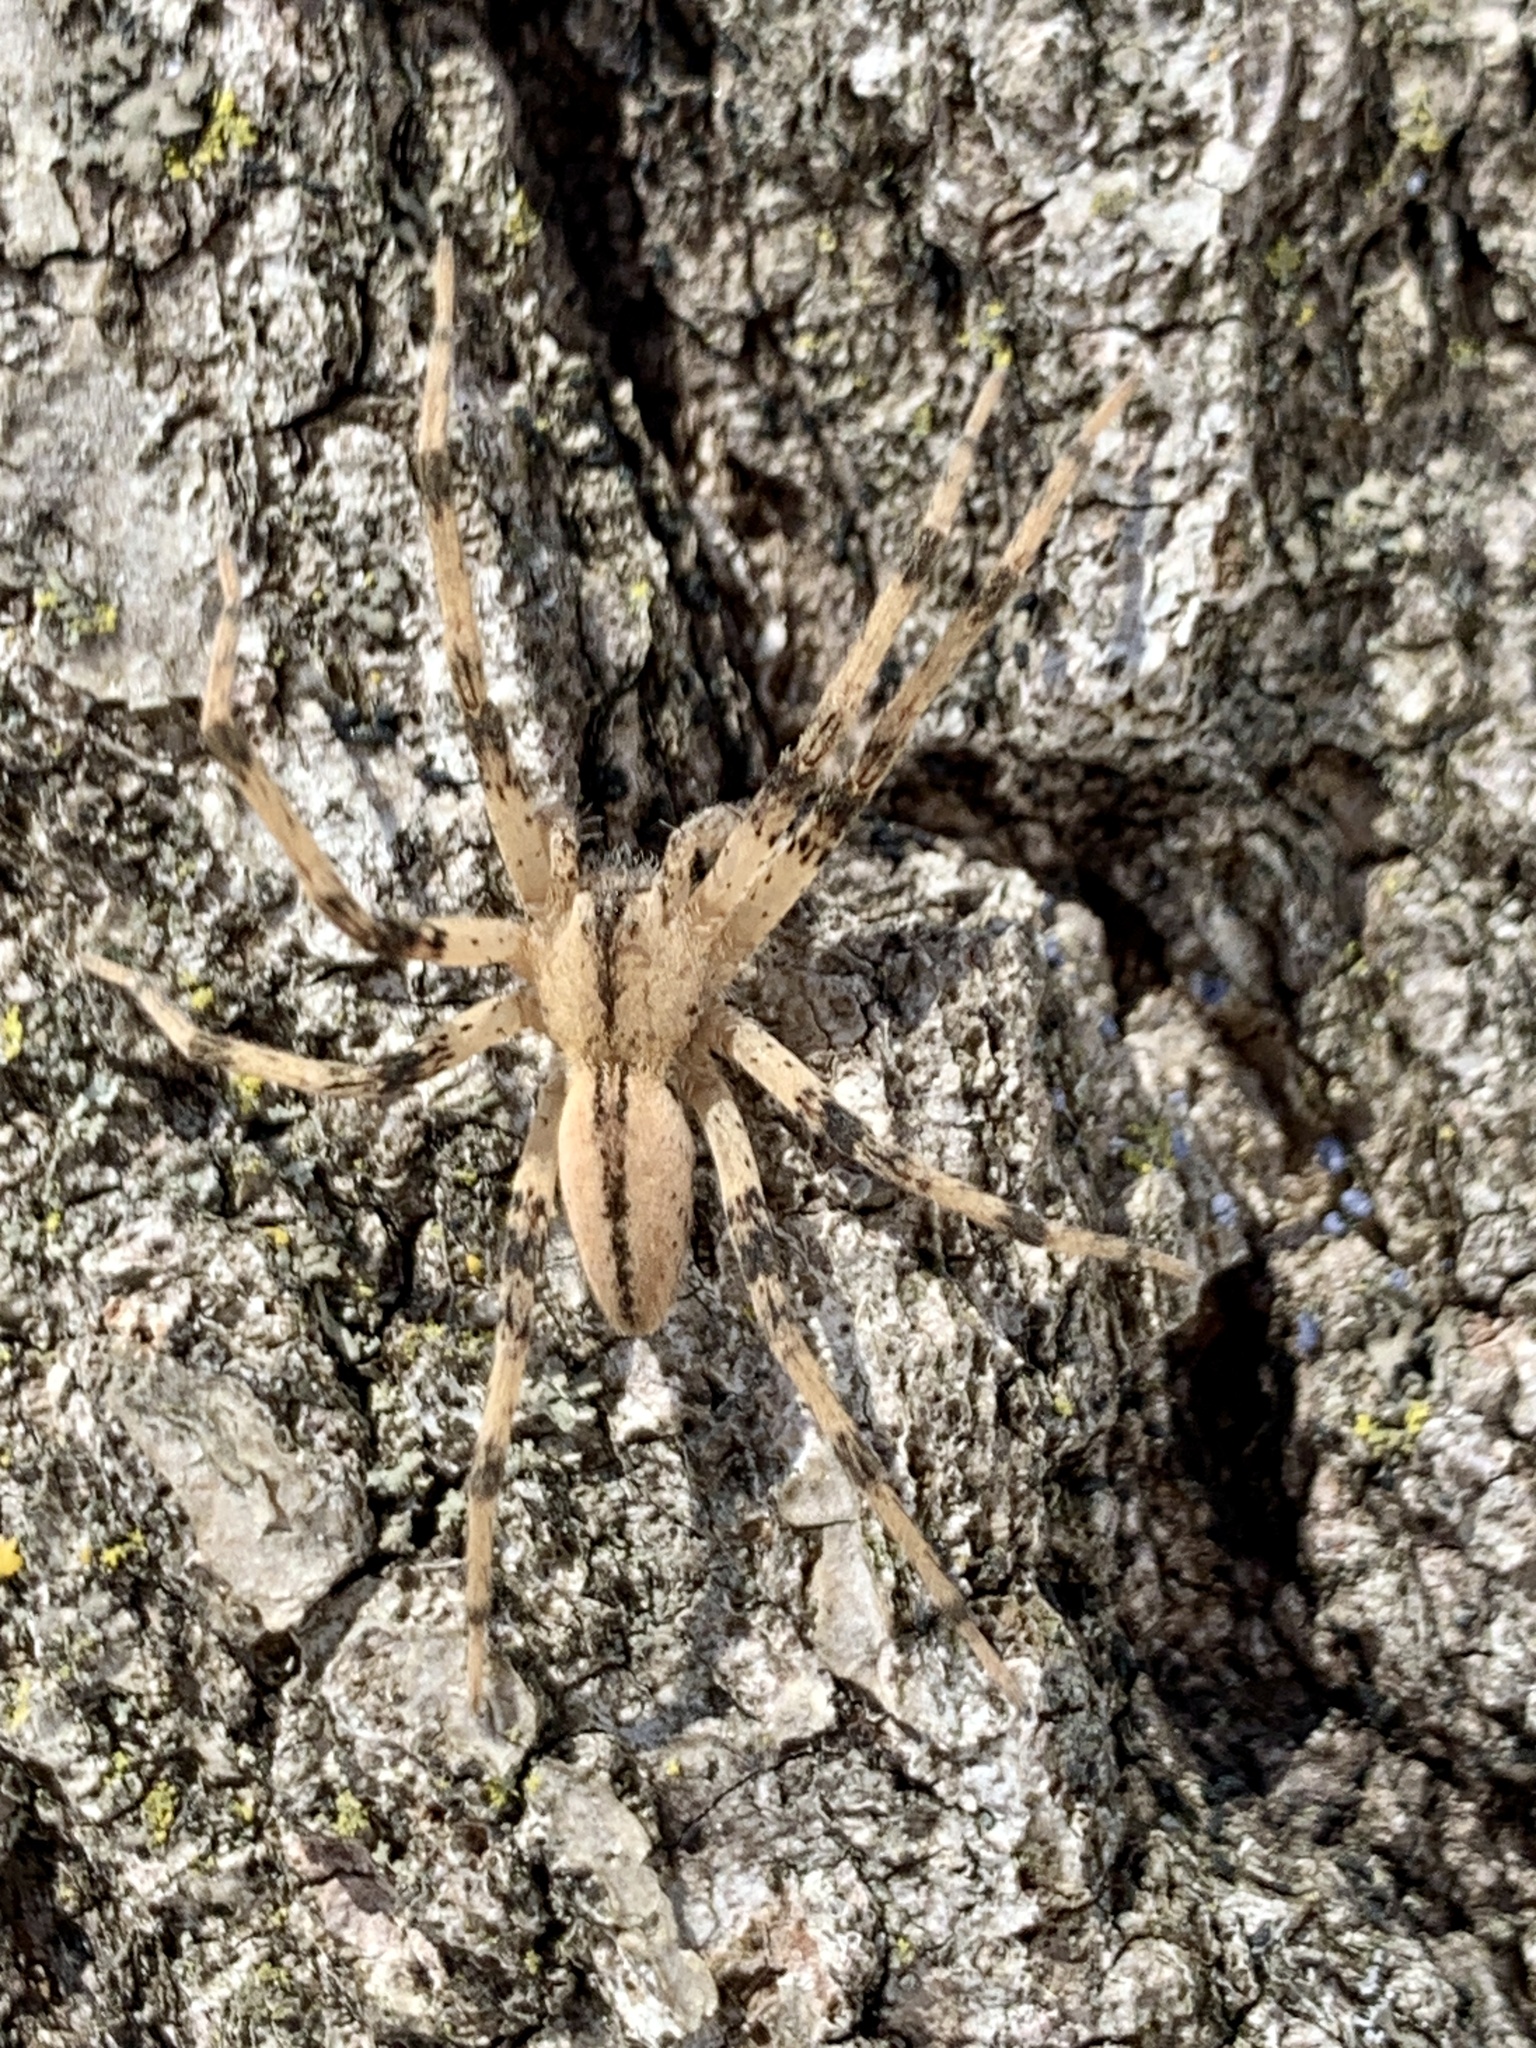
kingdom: Animalia
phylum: Arthropoda
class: Arachnida
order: Araneae
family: Pisauridae
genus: Pisaurina
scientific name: Pisaurina mira
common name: American nursery web spider
